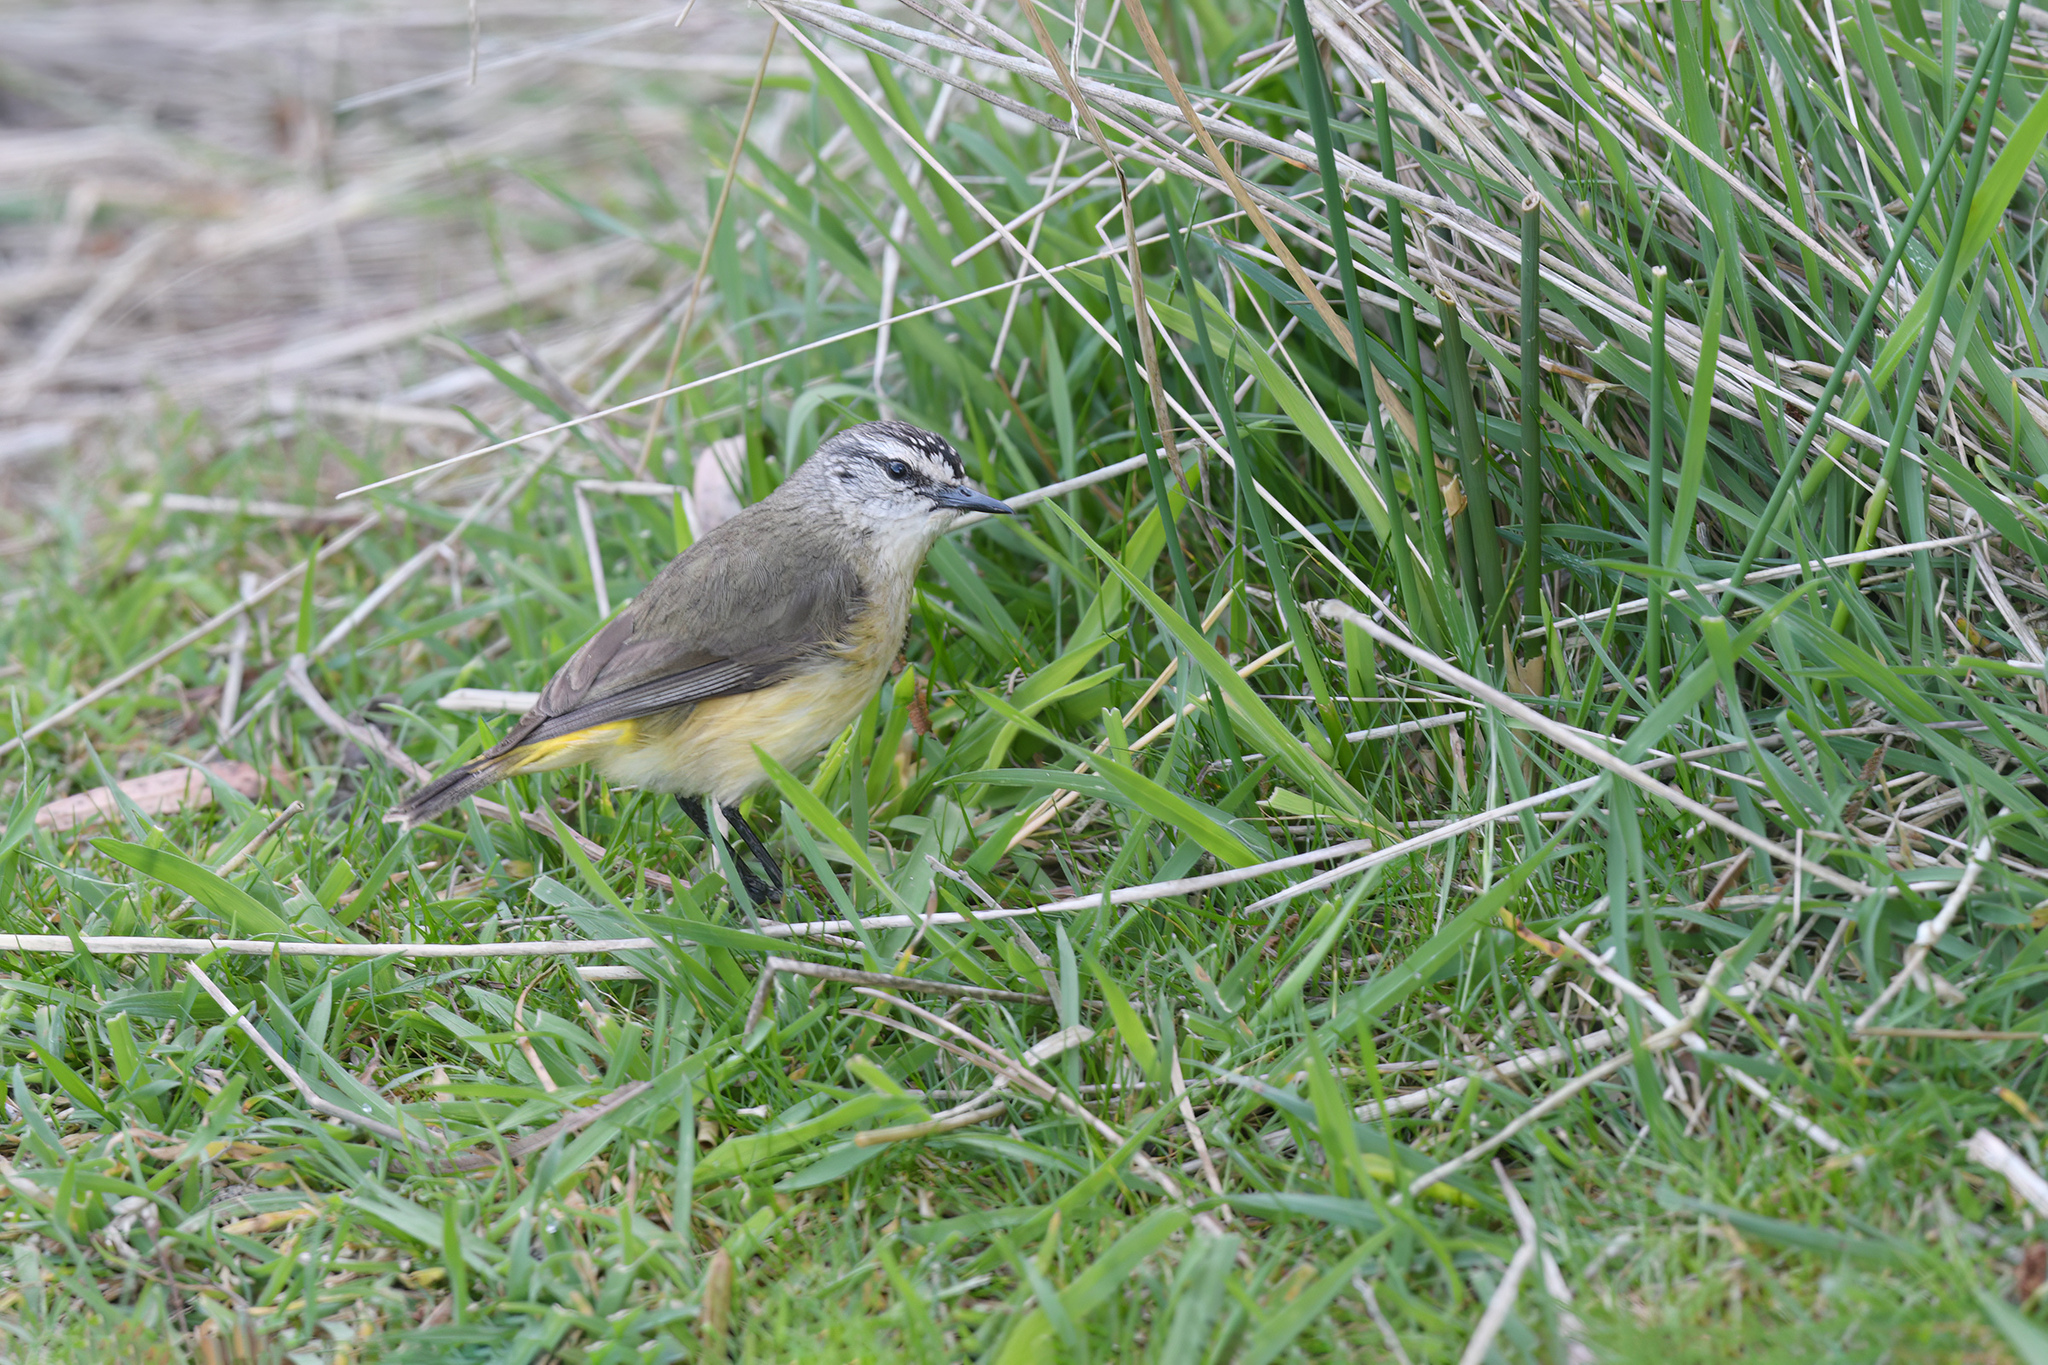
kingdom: Animalia
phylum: Chordata
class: Aves
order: Passeriformes
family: Acanthizidae
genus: Acanthiza
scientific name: Acanthiza chrysorrhoa
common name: Yellow-rumped thornbill
